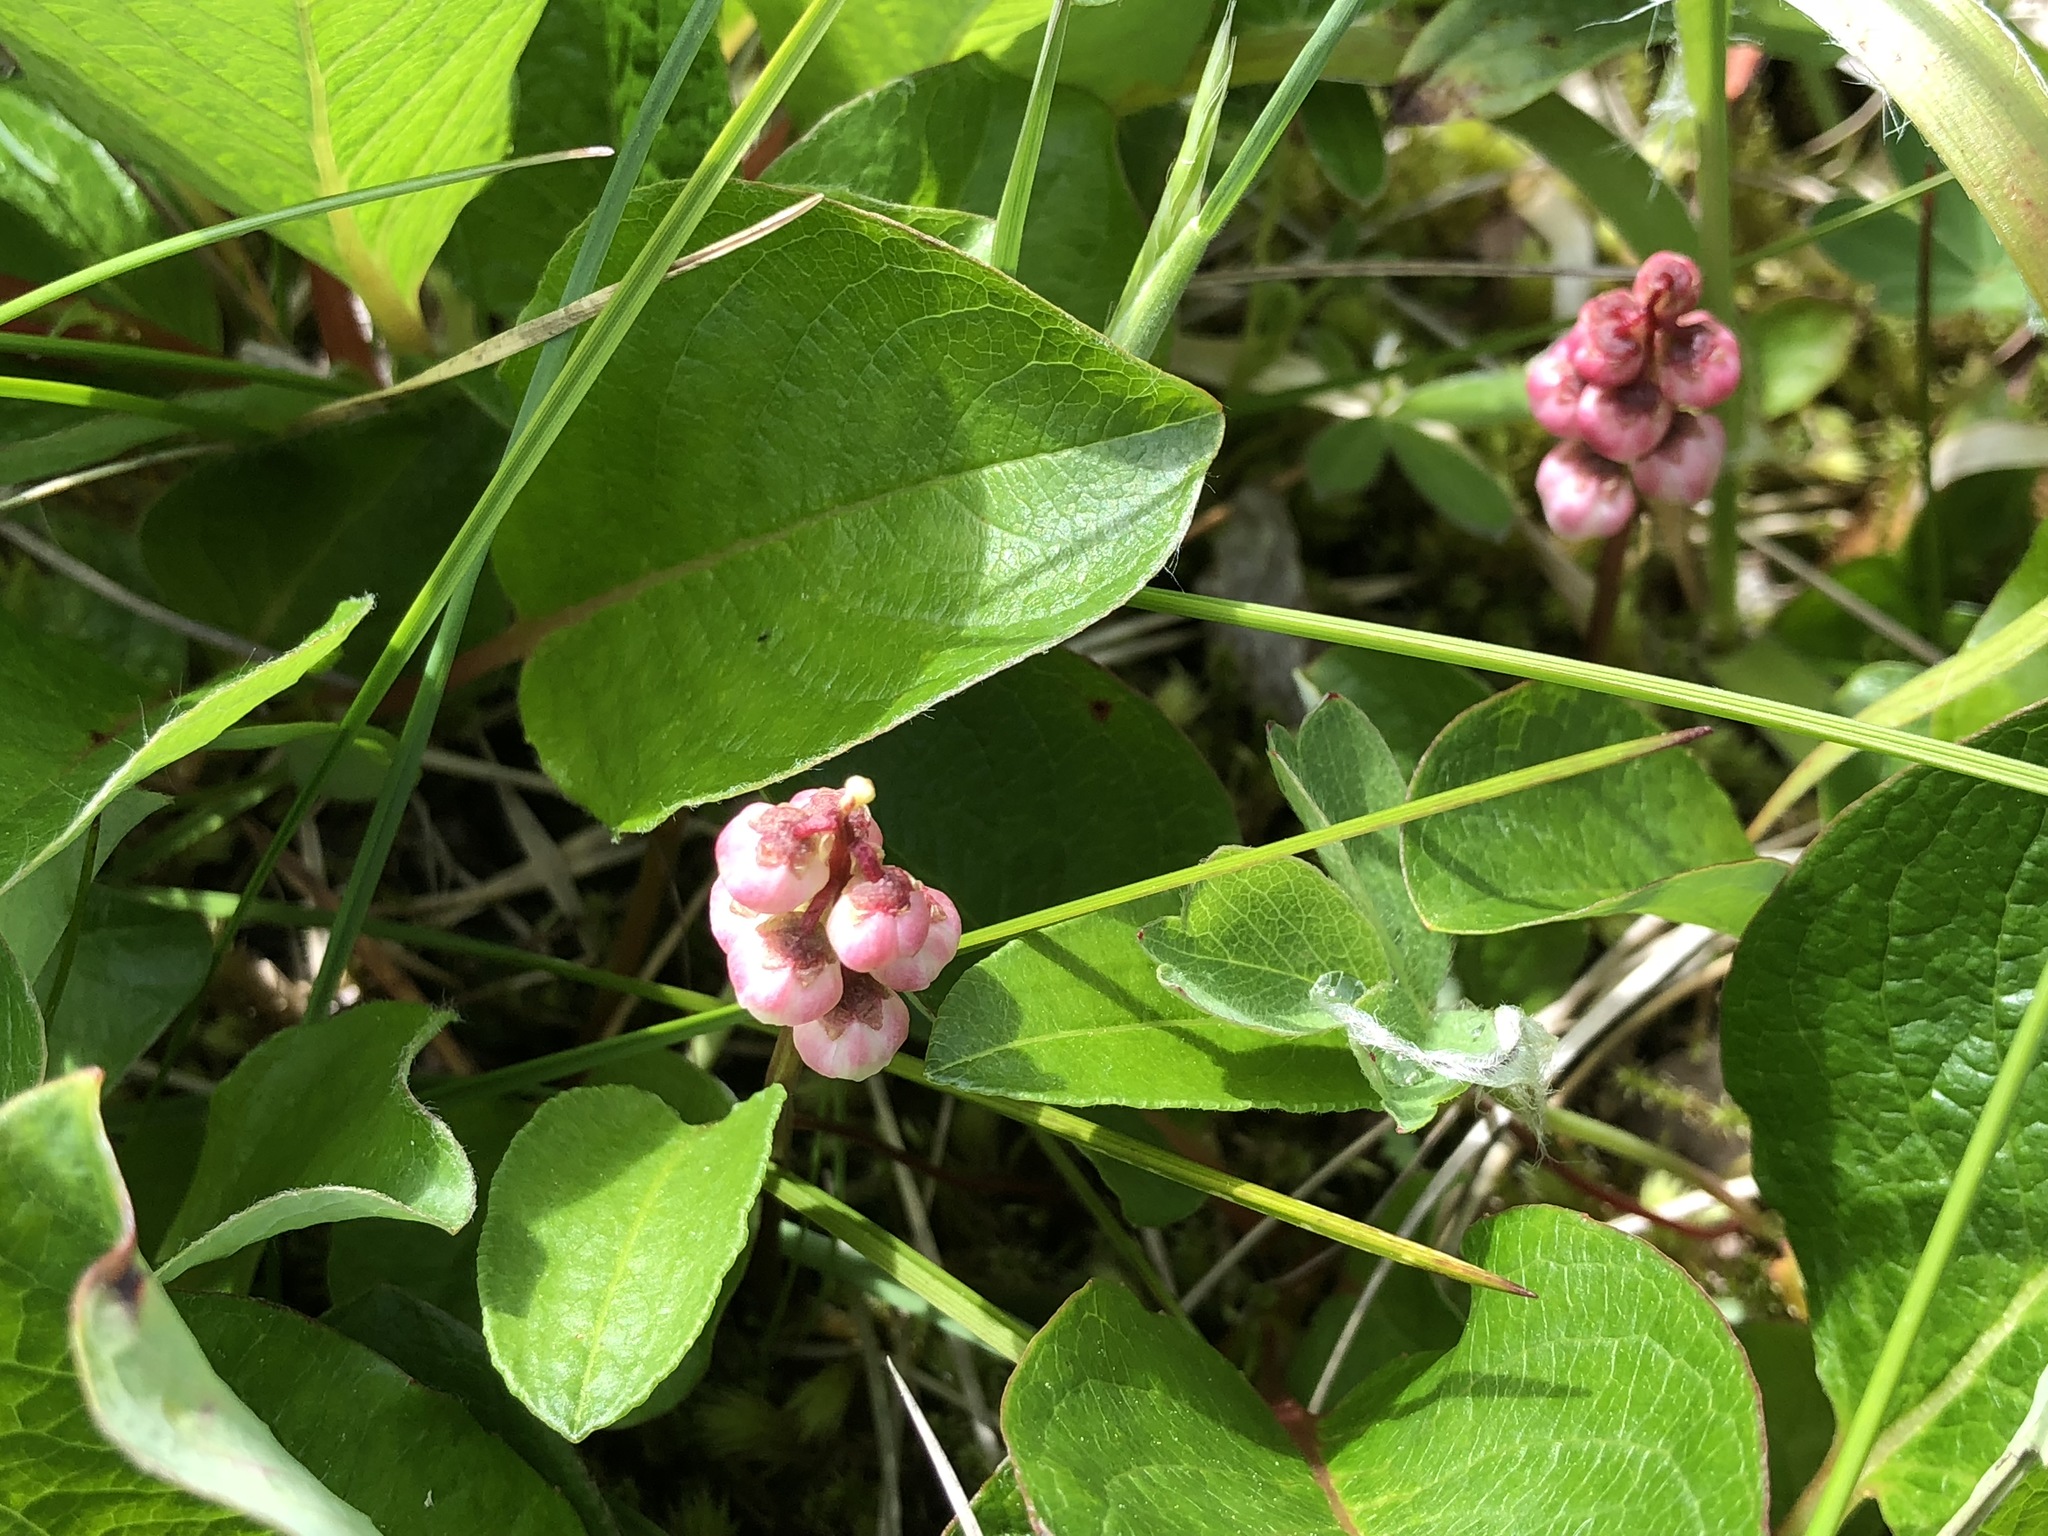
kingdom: Plantae
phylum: Tracheophyta
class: Magnoliopsida
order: Ericales
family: Ericaceae
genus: Pyrola
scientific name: Pyrola minor
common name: Common wintergreen
